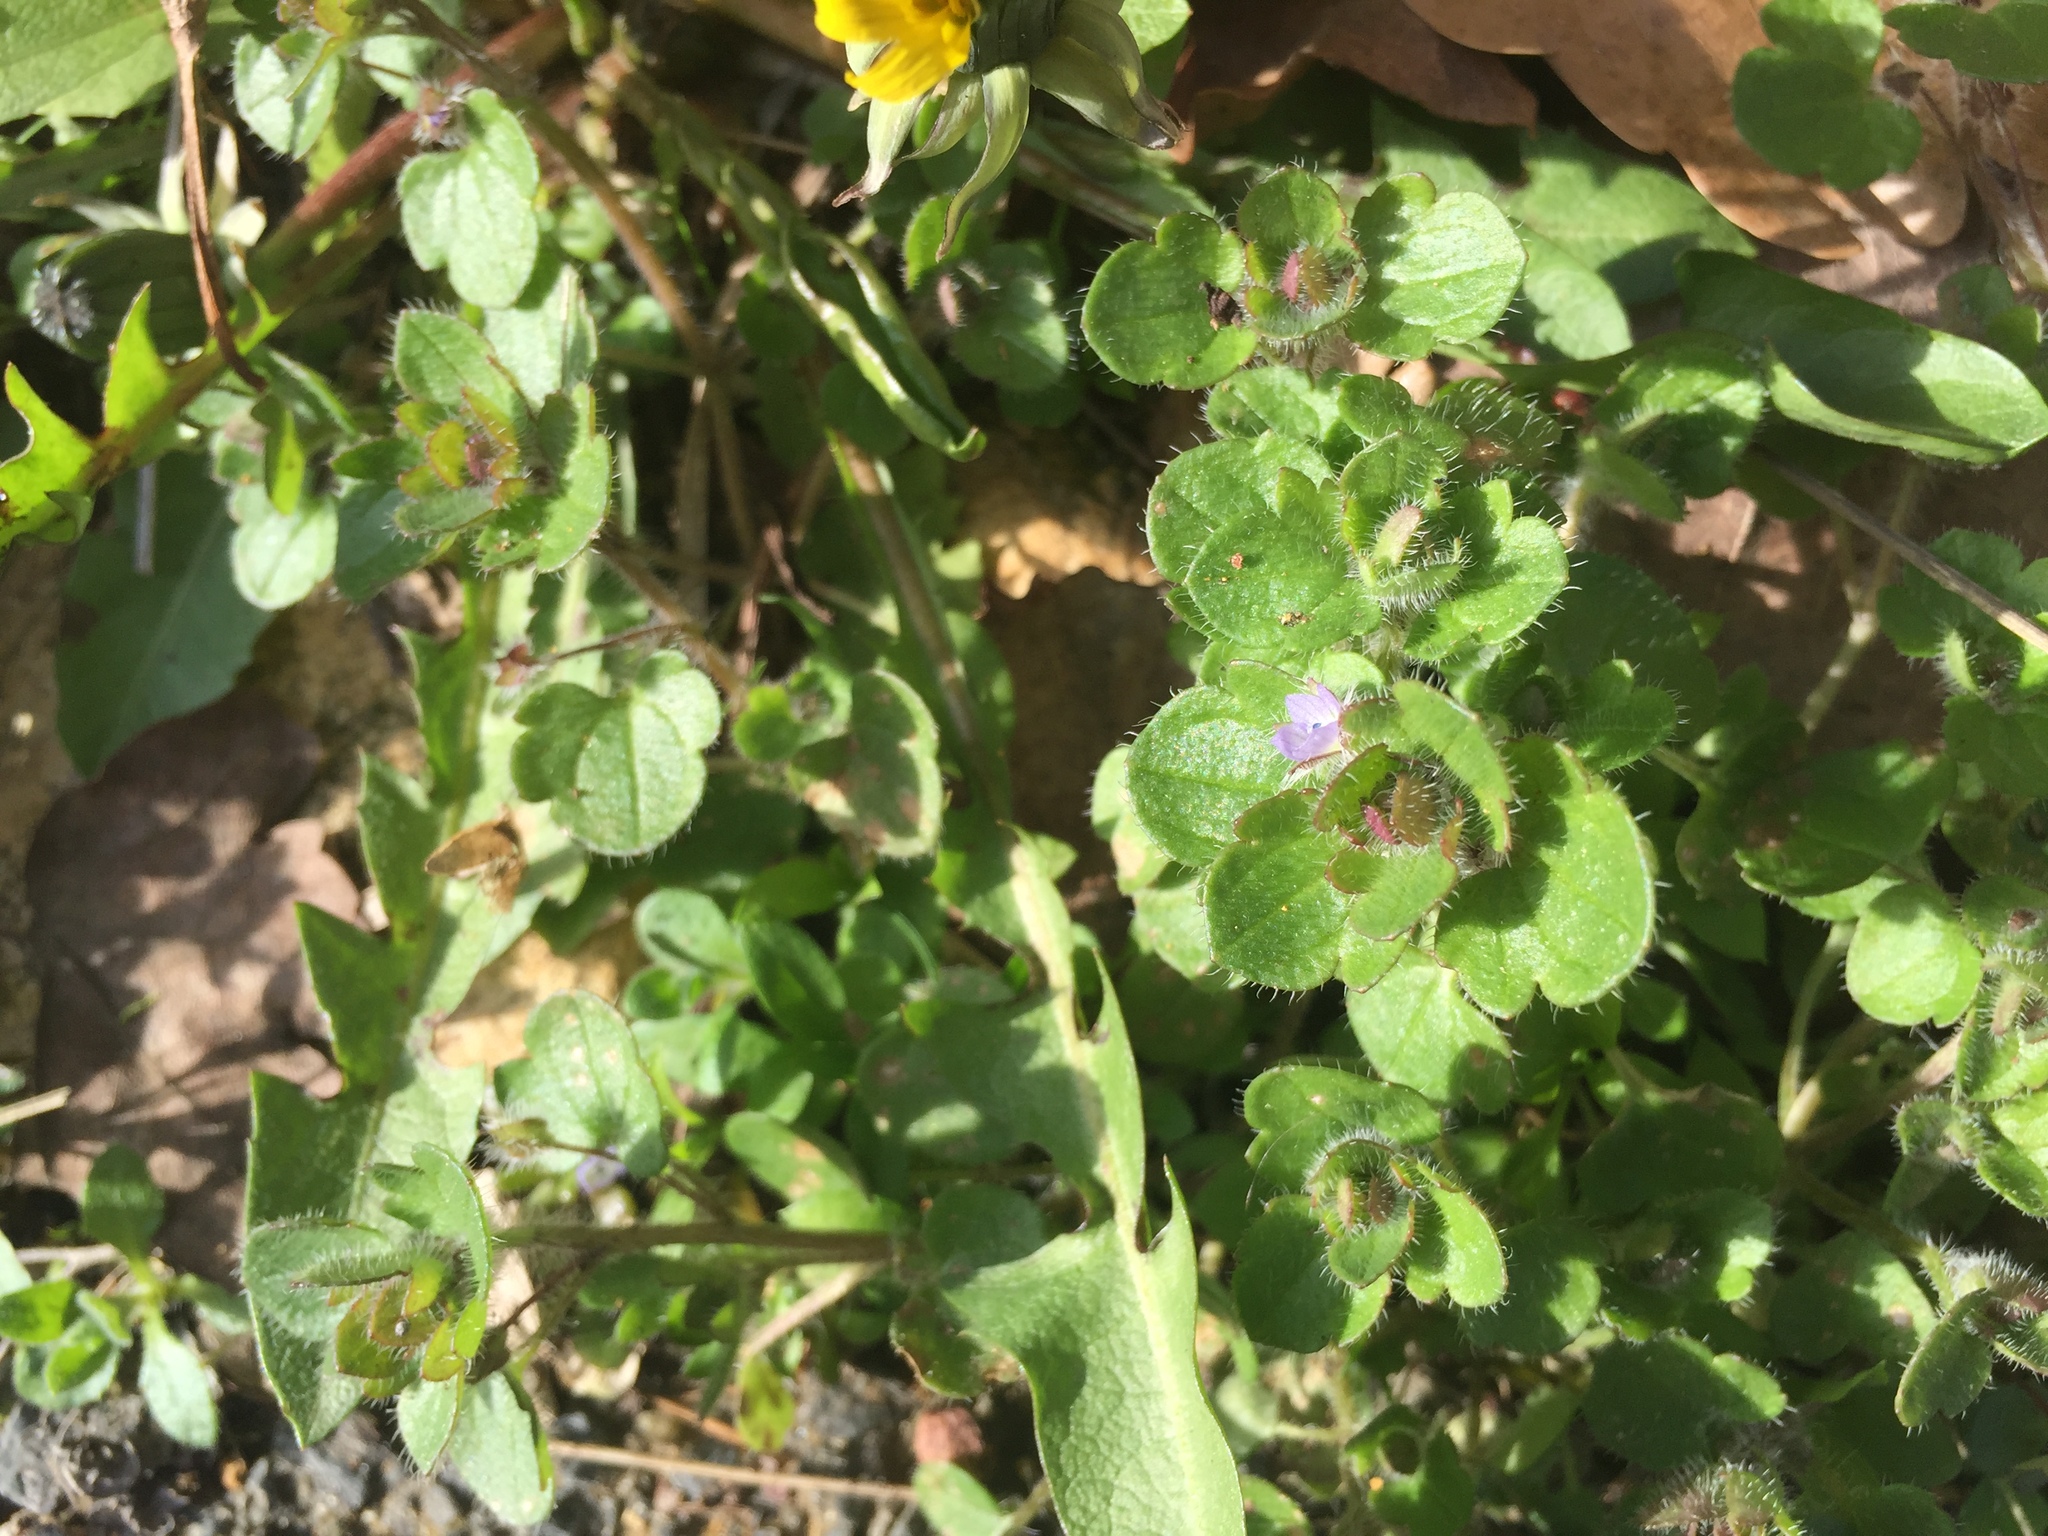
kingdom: Plantae
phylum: Tracheophyta
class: Magnoliopsida
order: Lamiales
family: Plantaginaceae
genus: Veronica
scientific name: Veronica hederifolia
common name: Ivy-leaved speedwell
